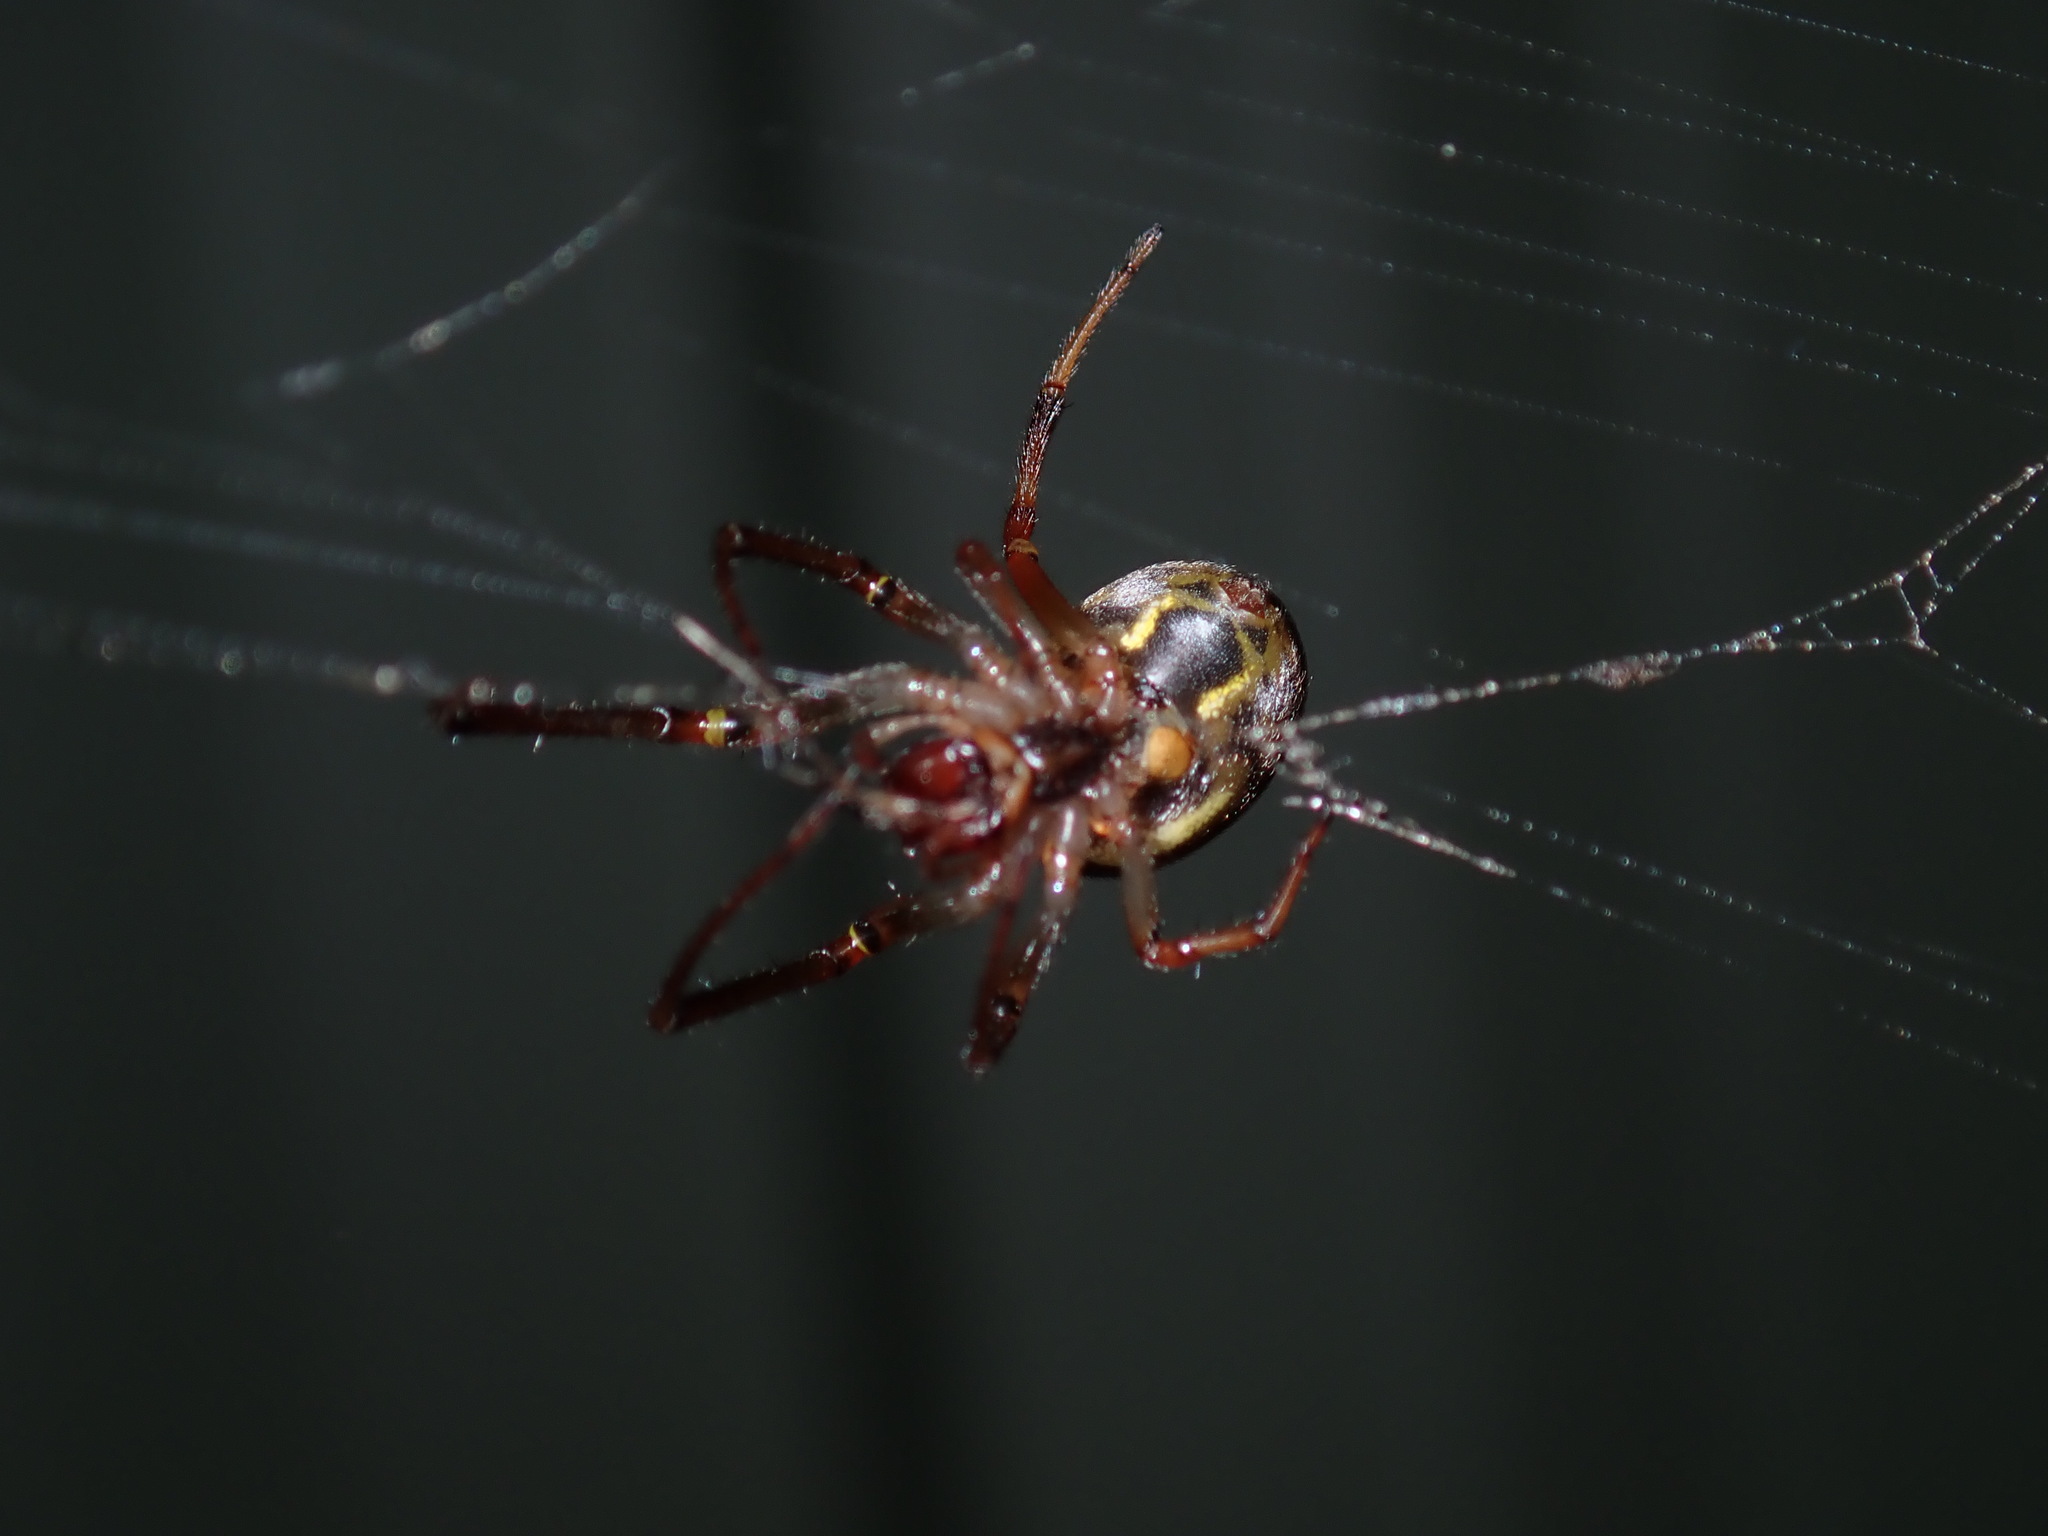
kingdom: Animalia
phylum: Arthropoda
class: Arachnida
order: Araneae
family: Araneidae
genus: Phonognatha
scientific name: Phonognatha graeffei
